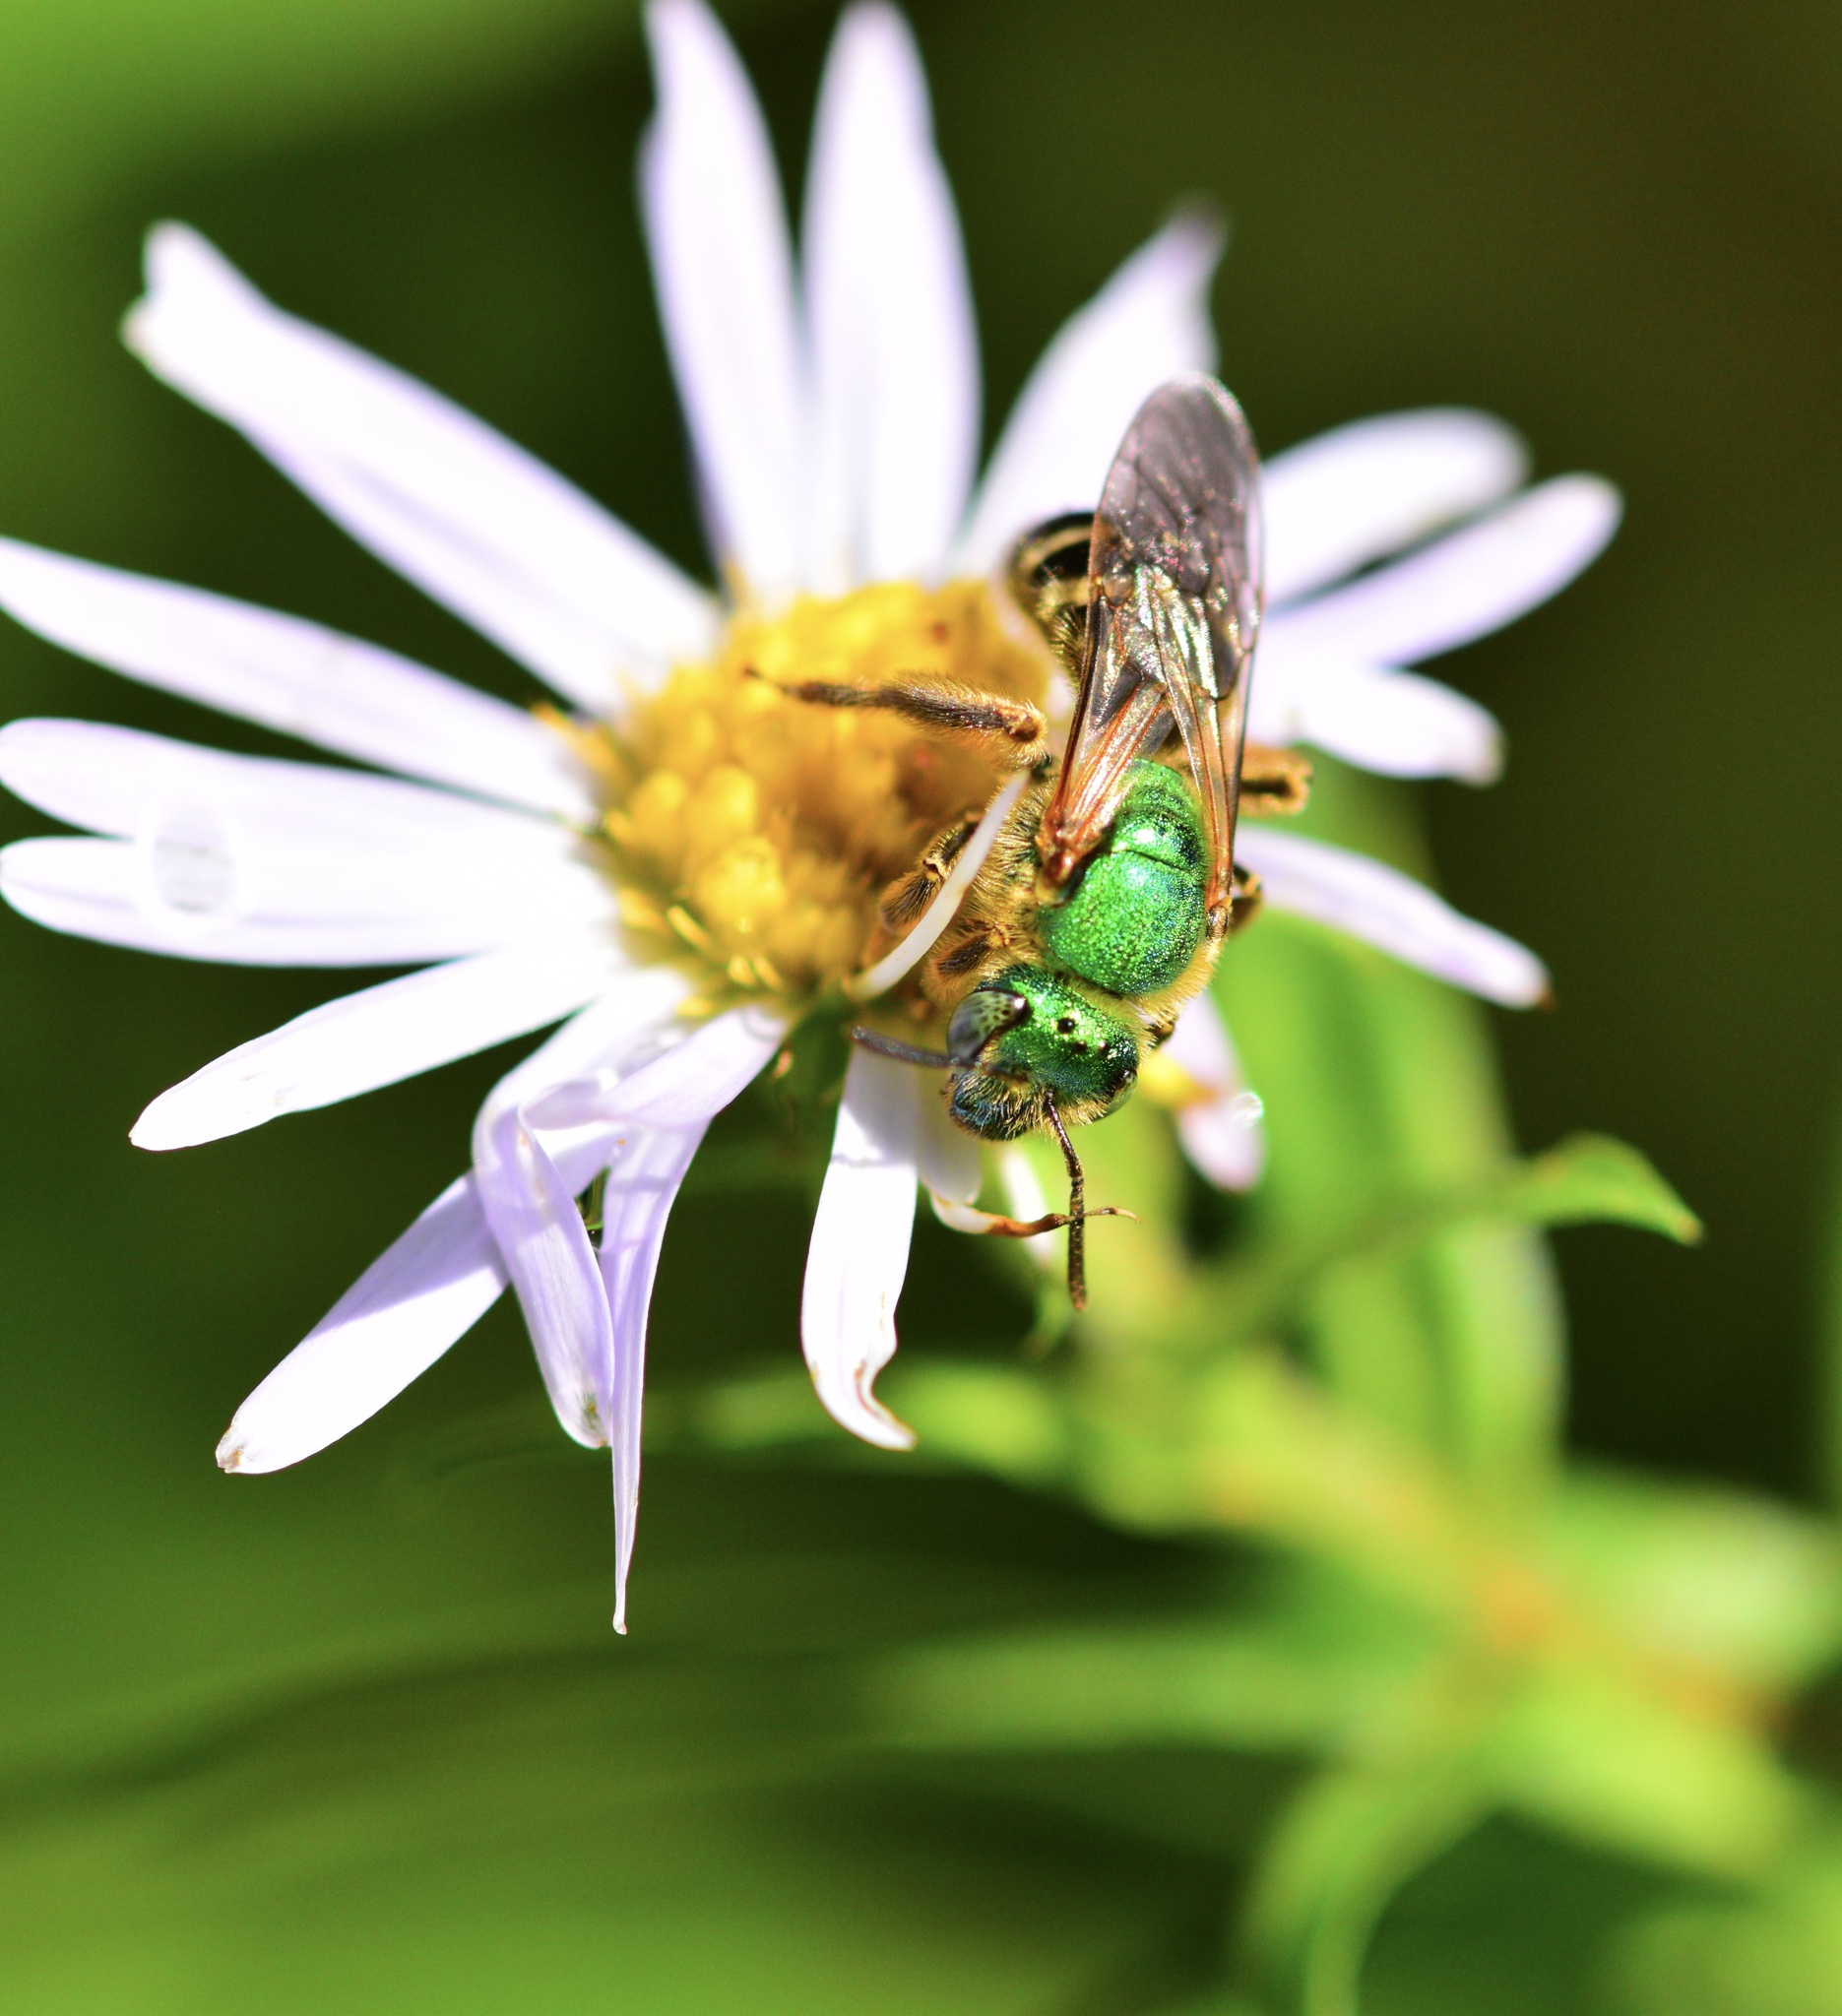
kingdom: Animalia
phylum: Arthropoda
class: Insecta
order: Hymenoptera
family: Halictidae
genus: Agapostemon
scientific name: Agapostemon virescens
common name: Bicolored striped sweat bee
